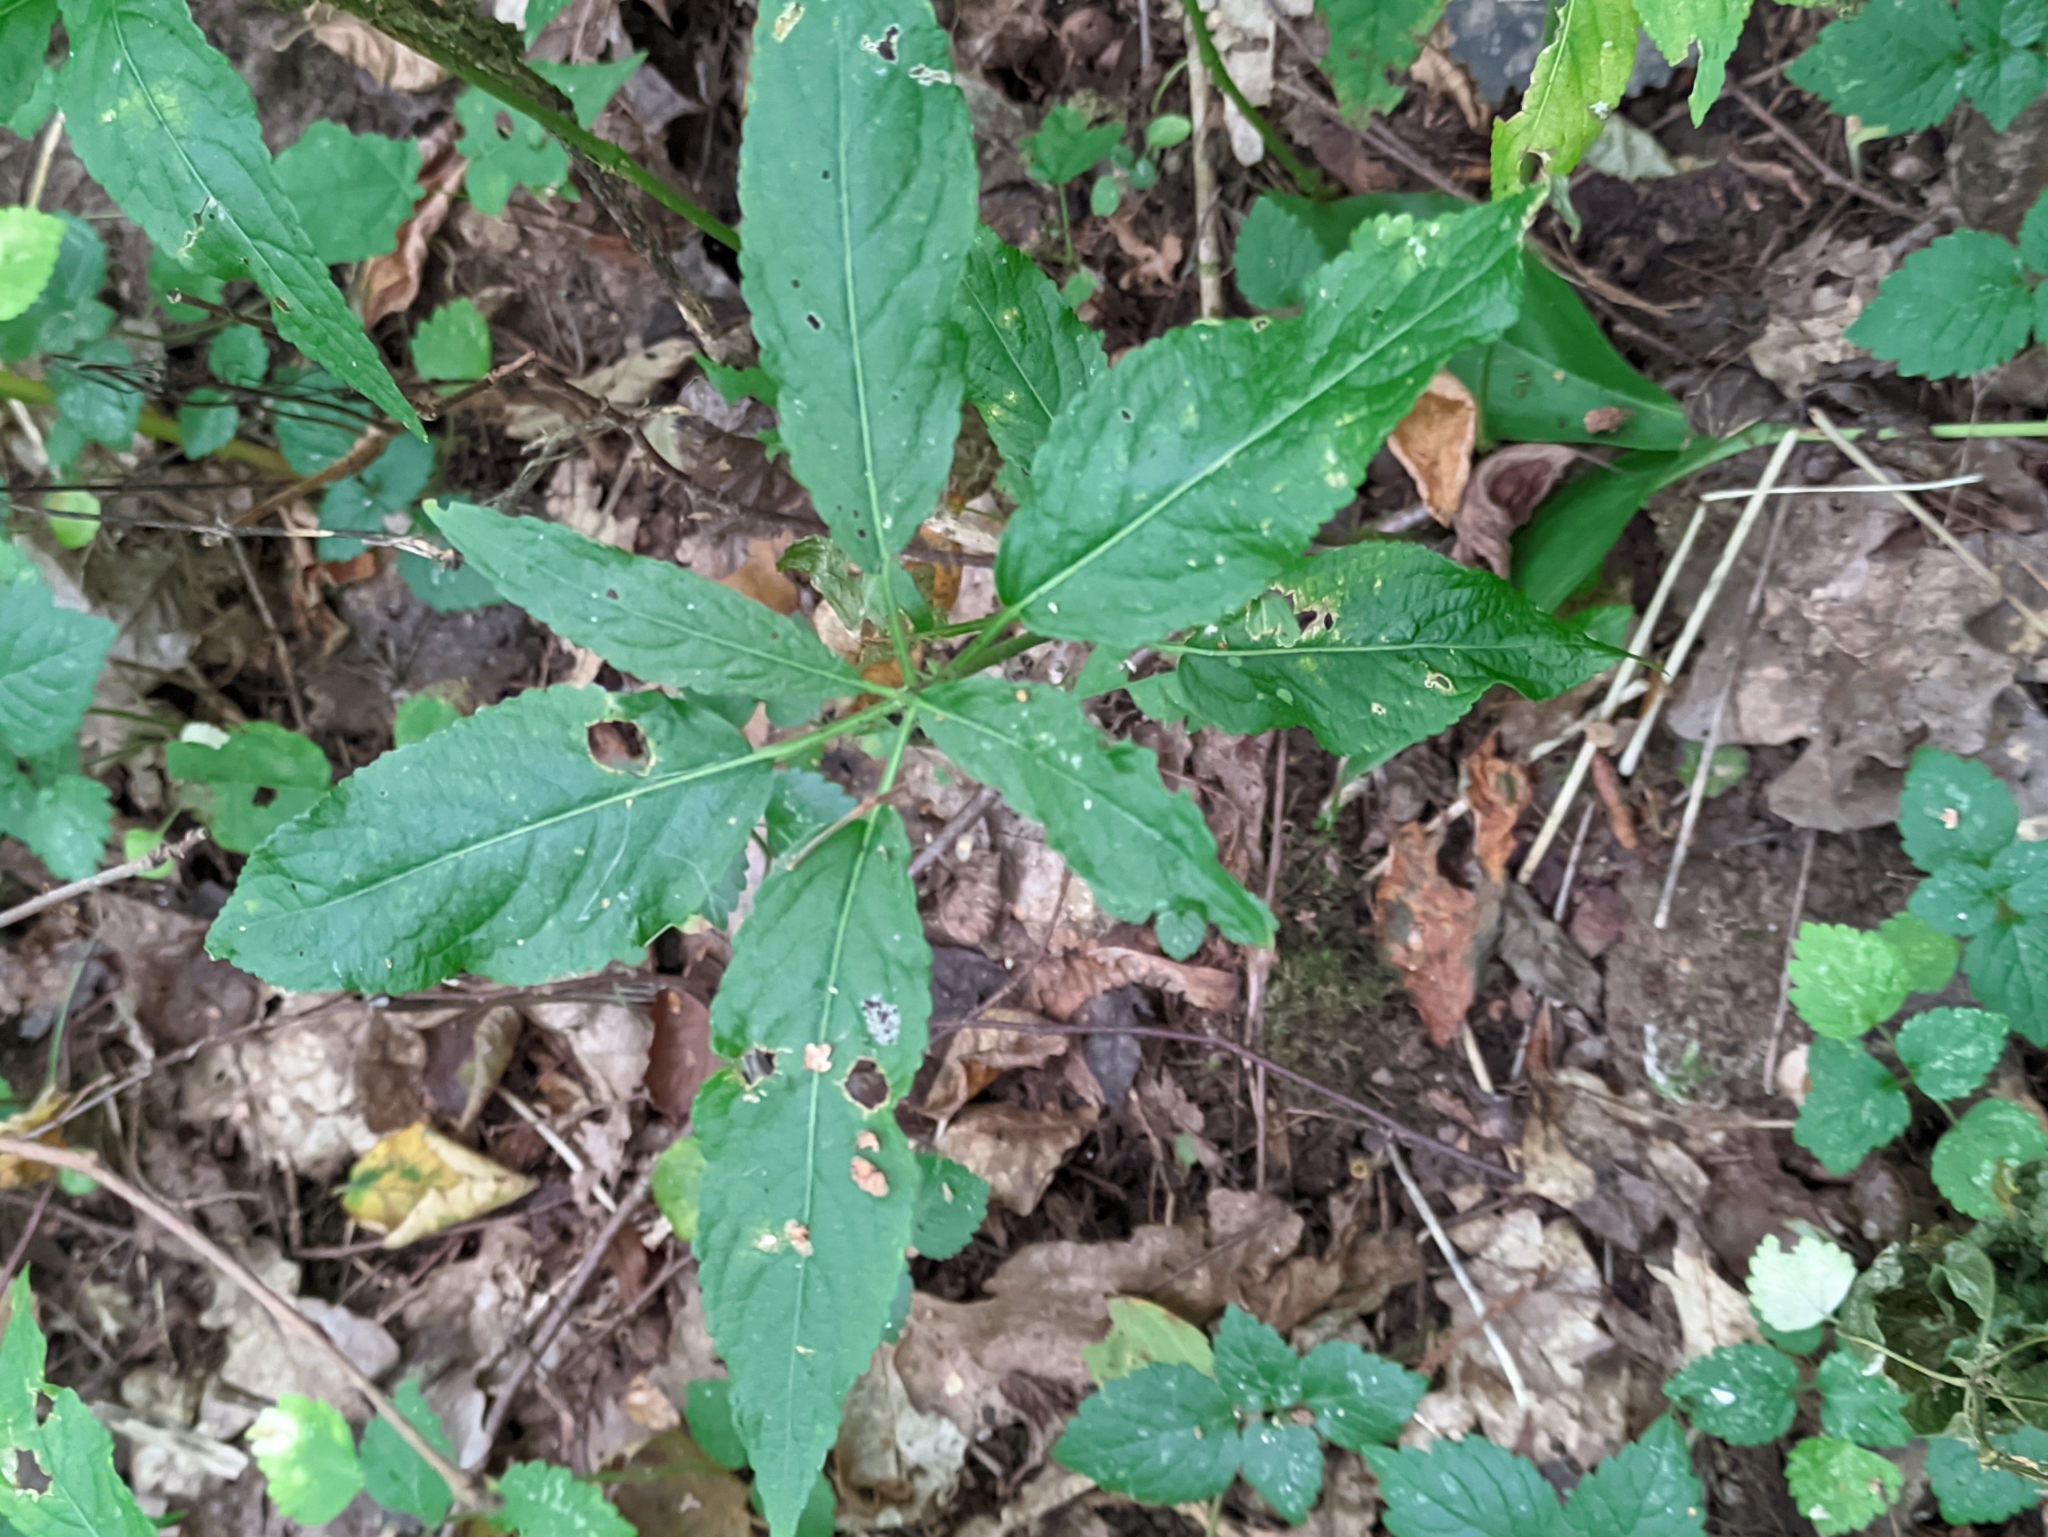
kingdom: Plantae
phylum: Tracheophyta
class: Magnoliopsida
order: Malpighiales
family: Euphorbiaceae
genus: Mercurialis
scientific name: Mercurialis perennis
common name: Dog mercury
